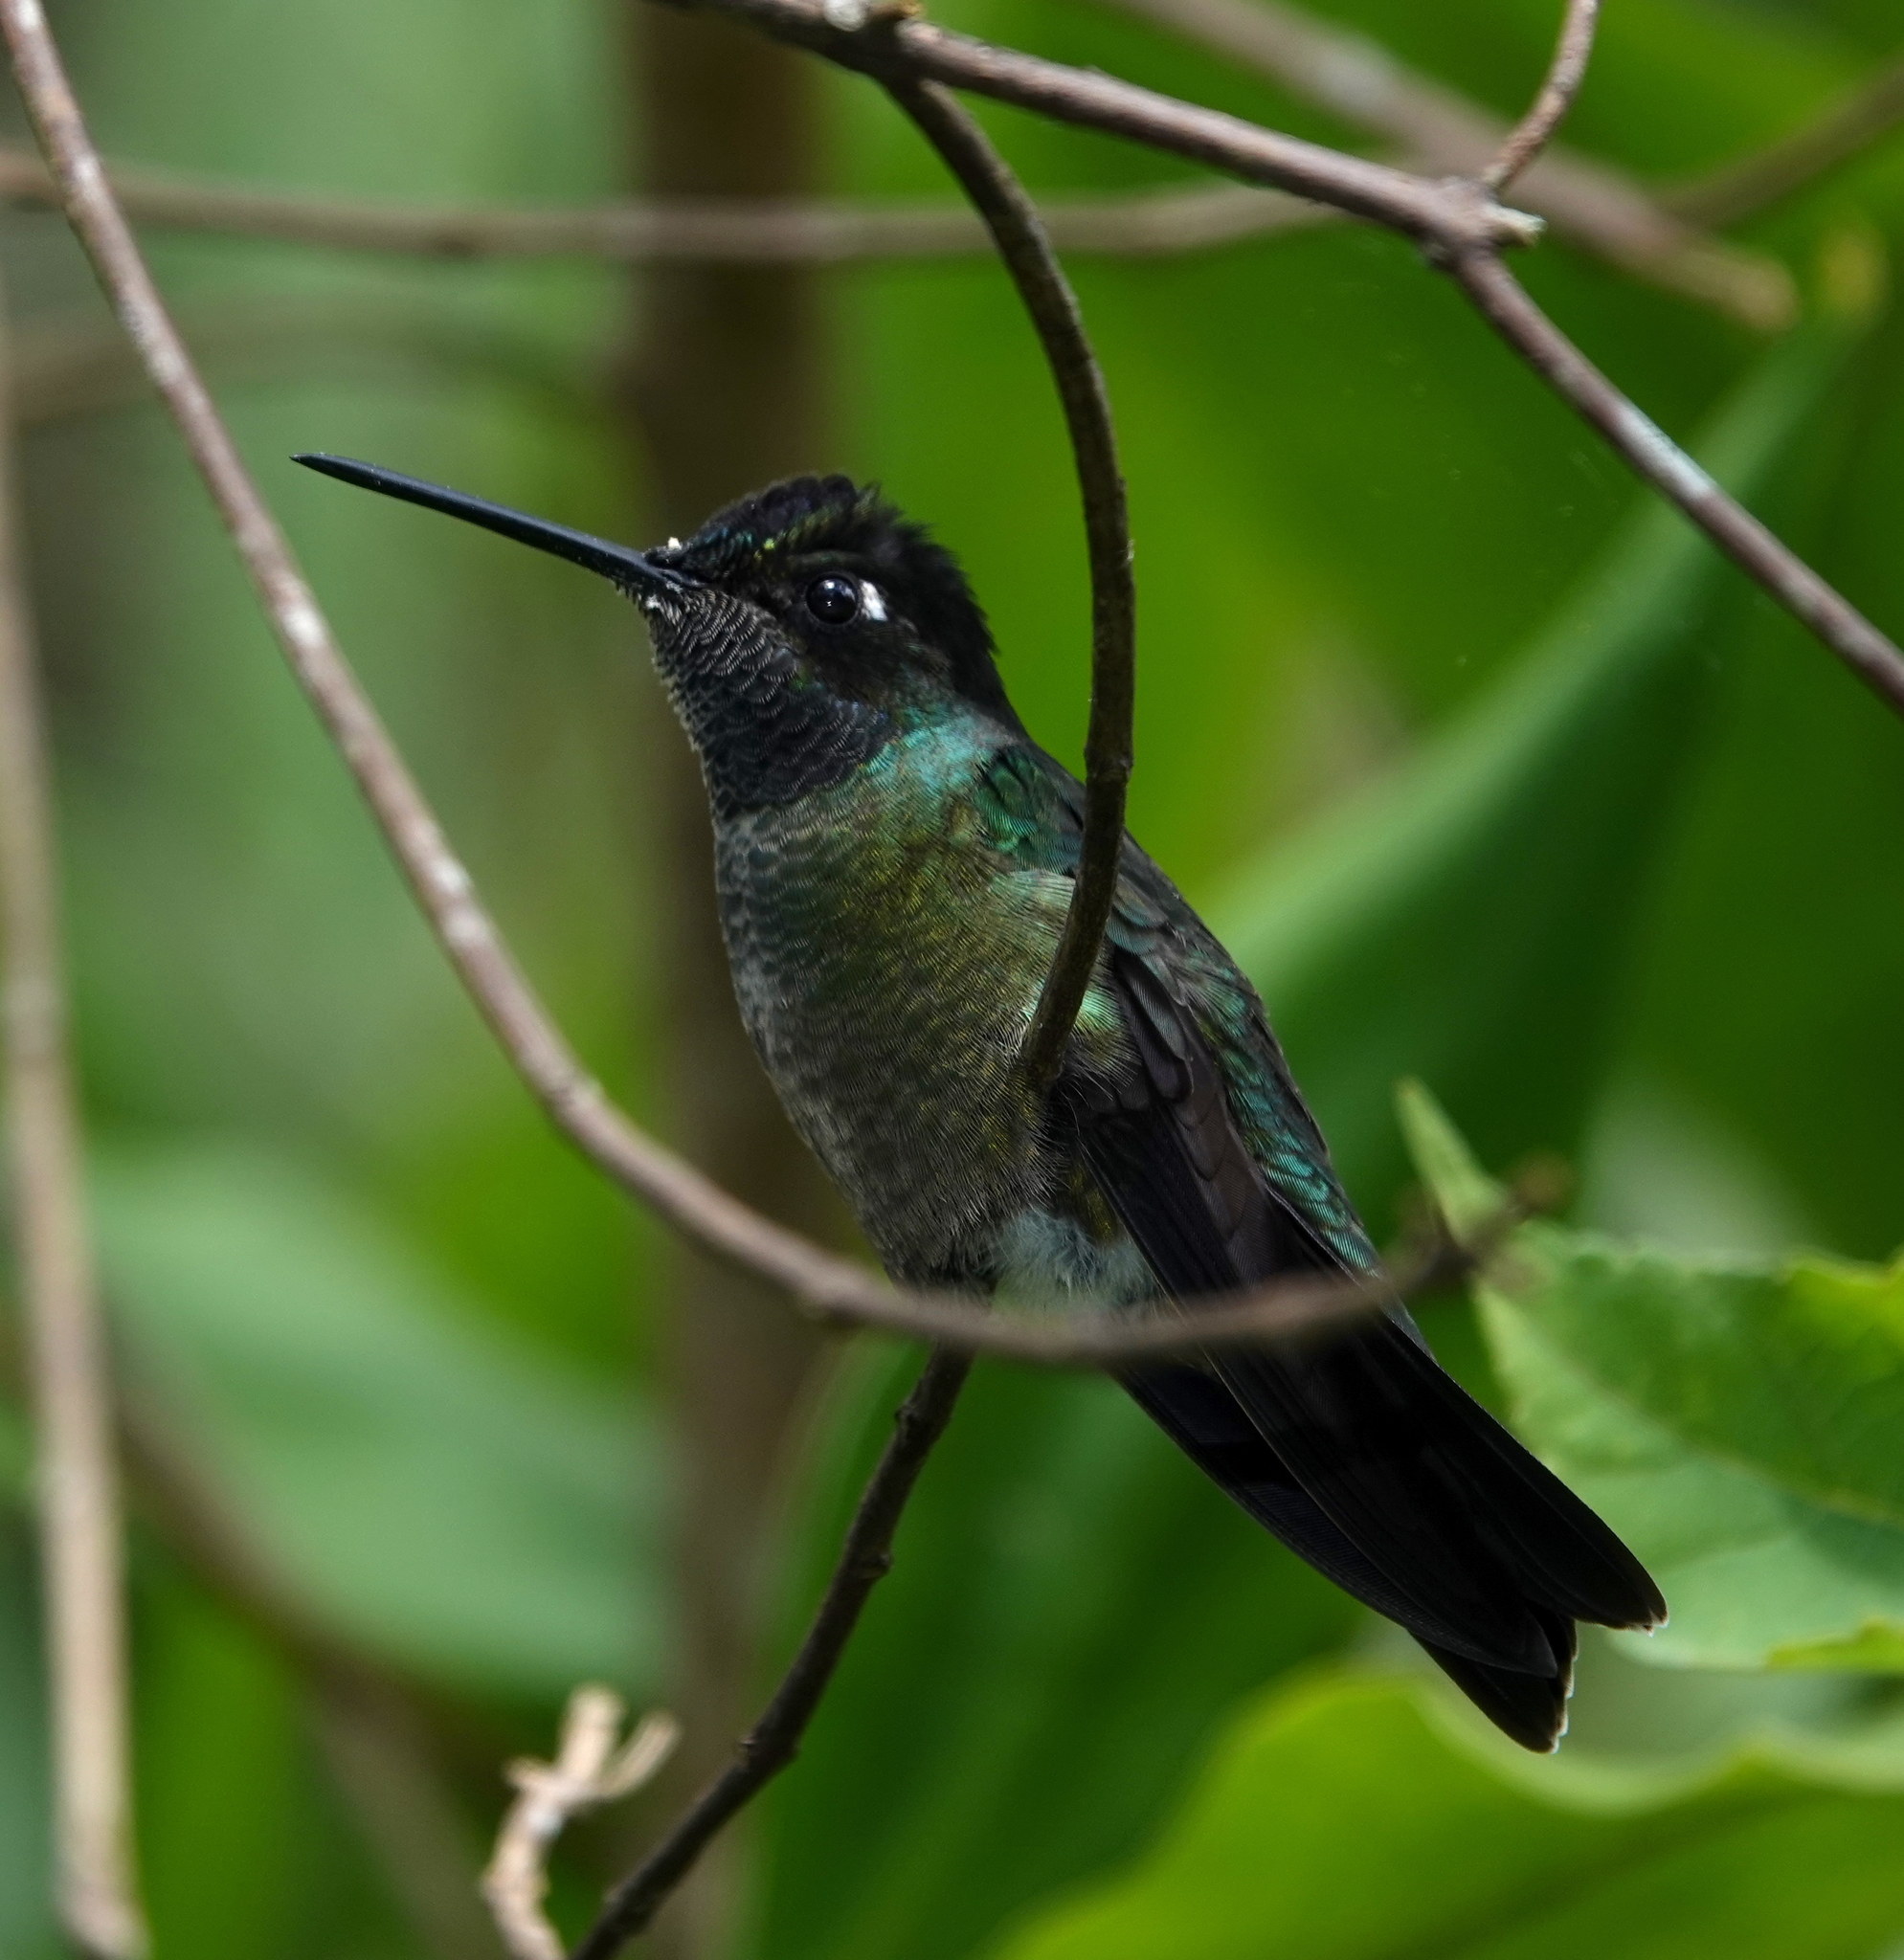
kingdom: Animalia
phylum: Chordata
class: Aves
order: Apodiformes
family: Trochilidae
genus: Eugenes
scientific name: Eugenes spectabilis
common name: Talamanca hummingbird
